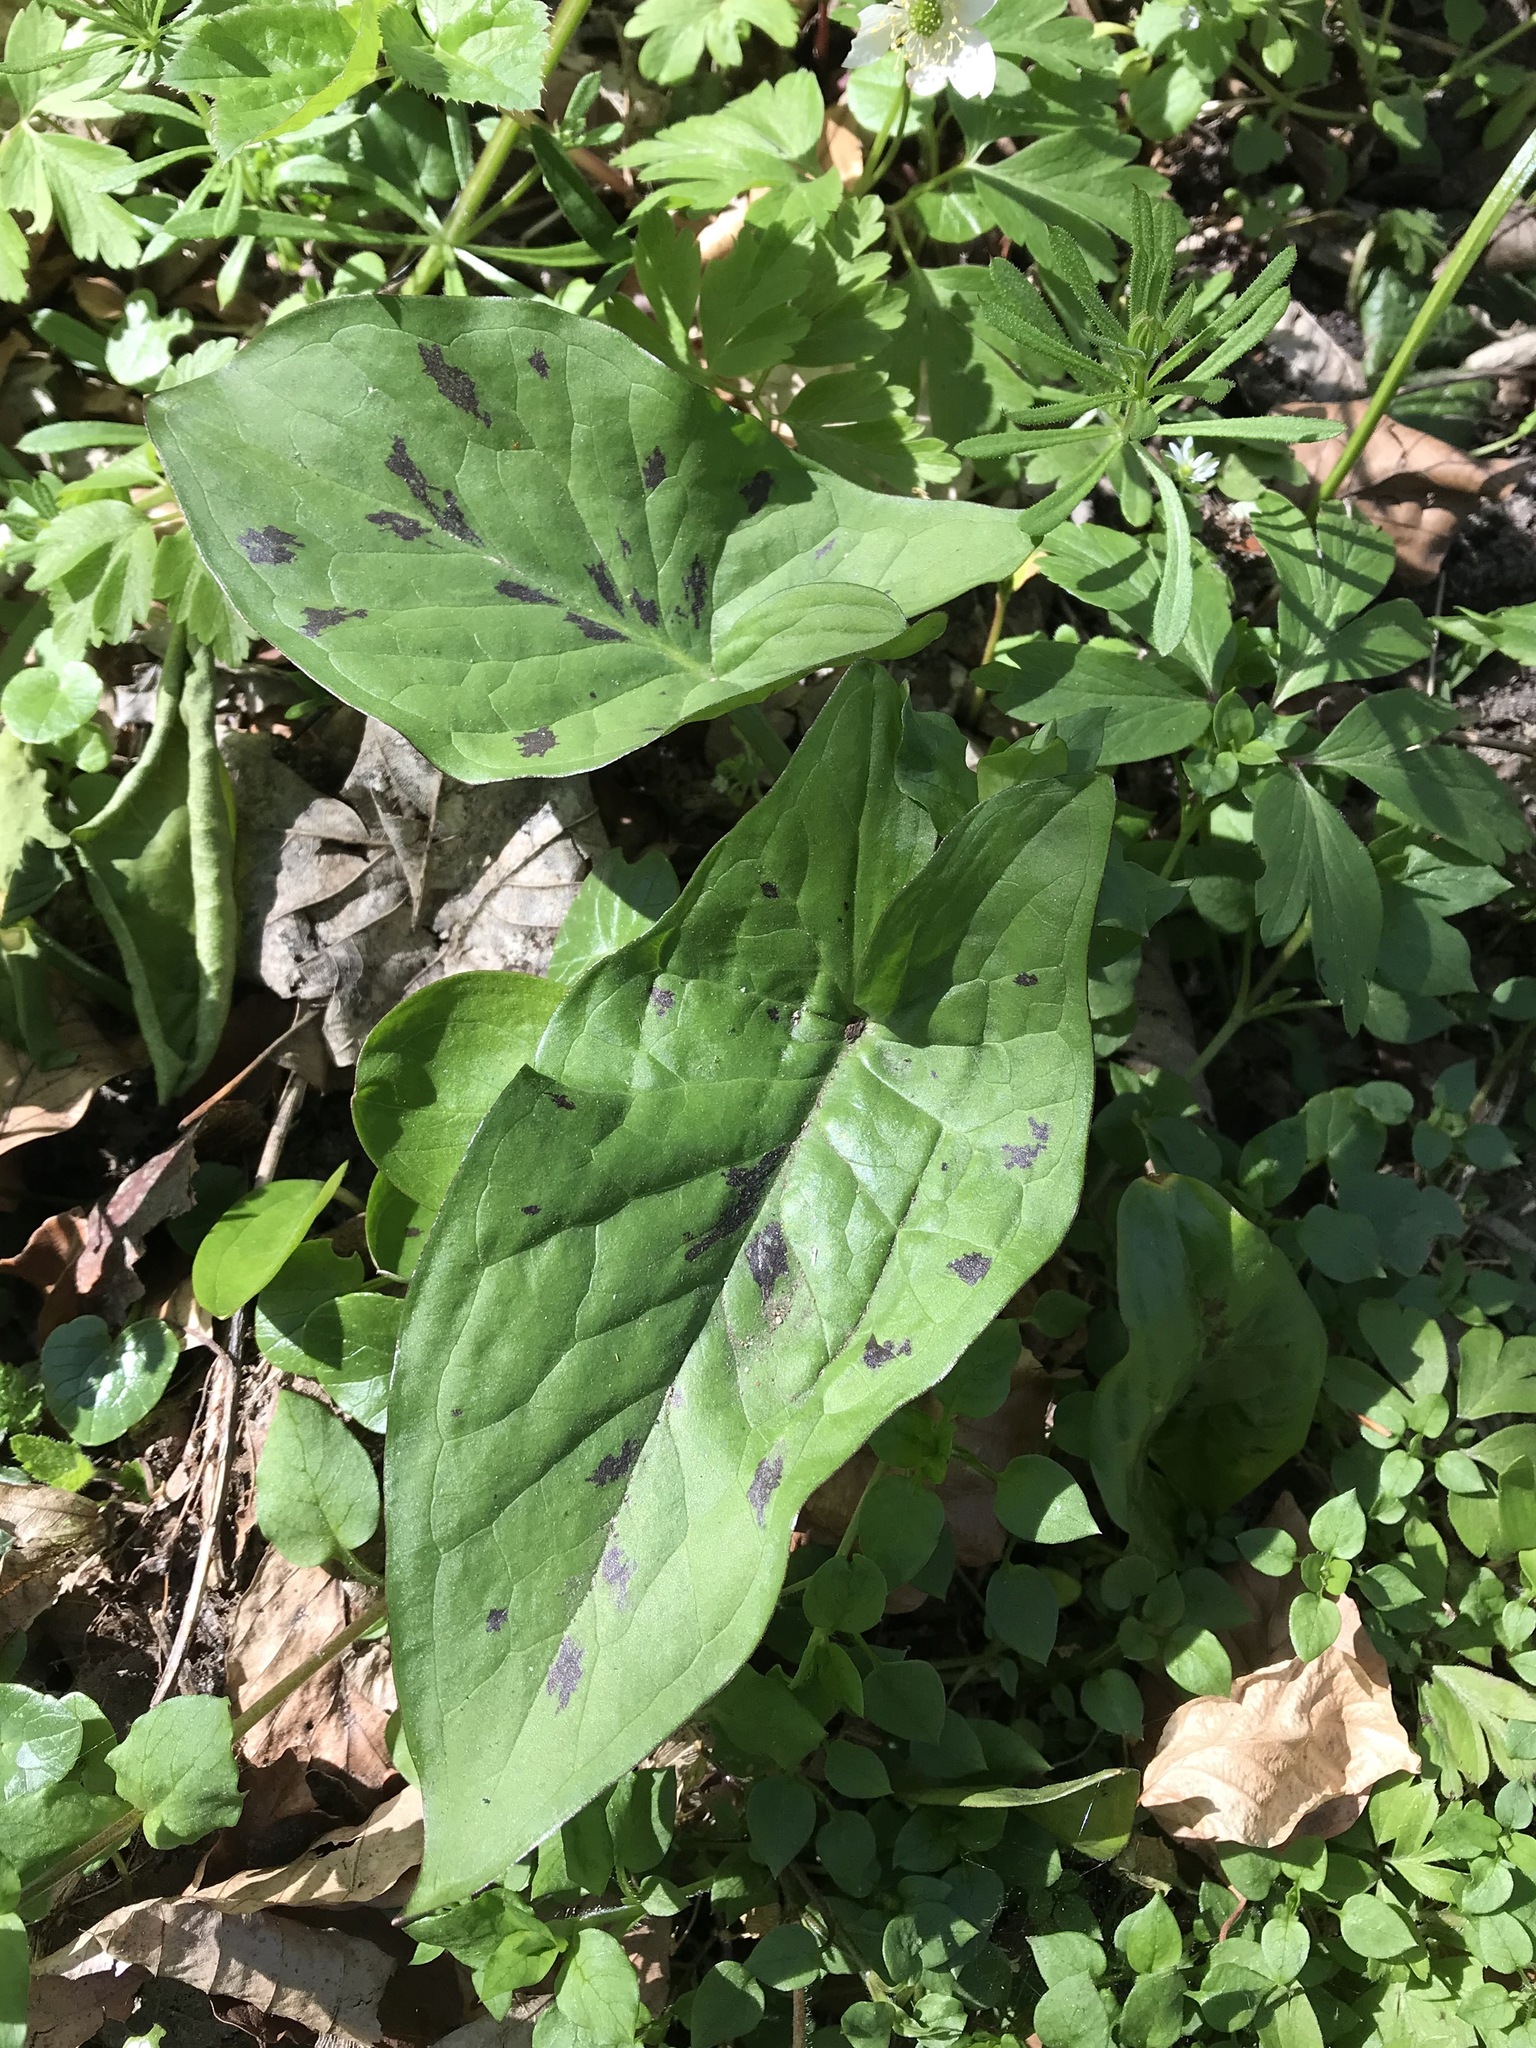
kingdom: Plantae
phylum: Tracheophyta
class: Liliopsida
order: Alismatales
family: Araceae
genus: Arum
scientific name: Arum maculatum
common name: Lords-and-ladies
